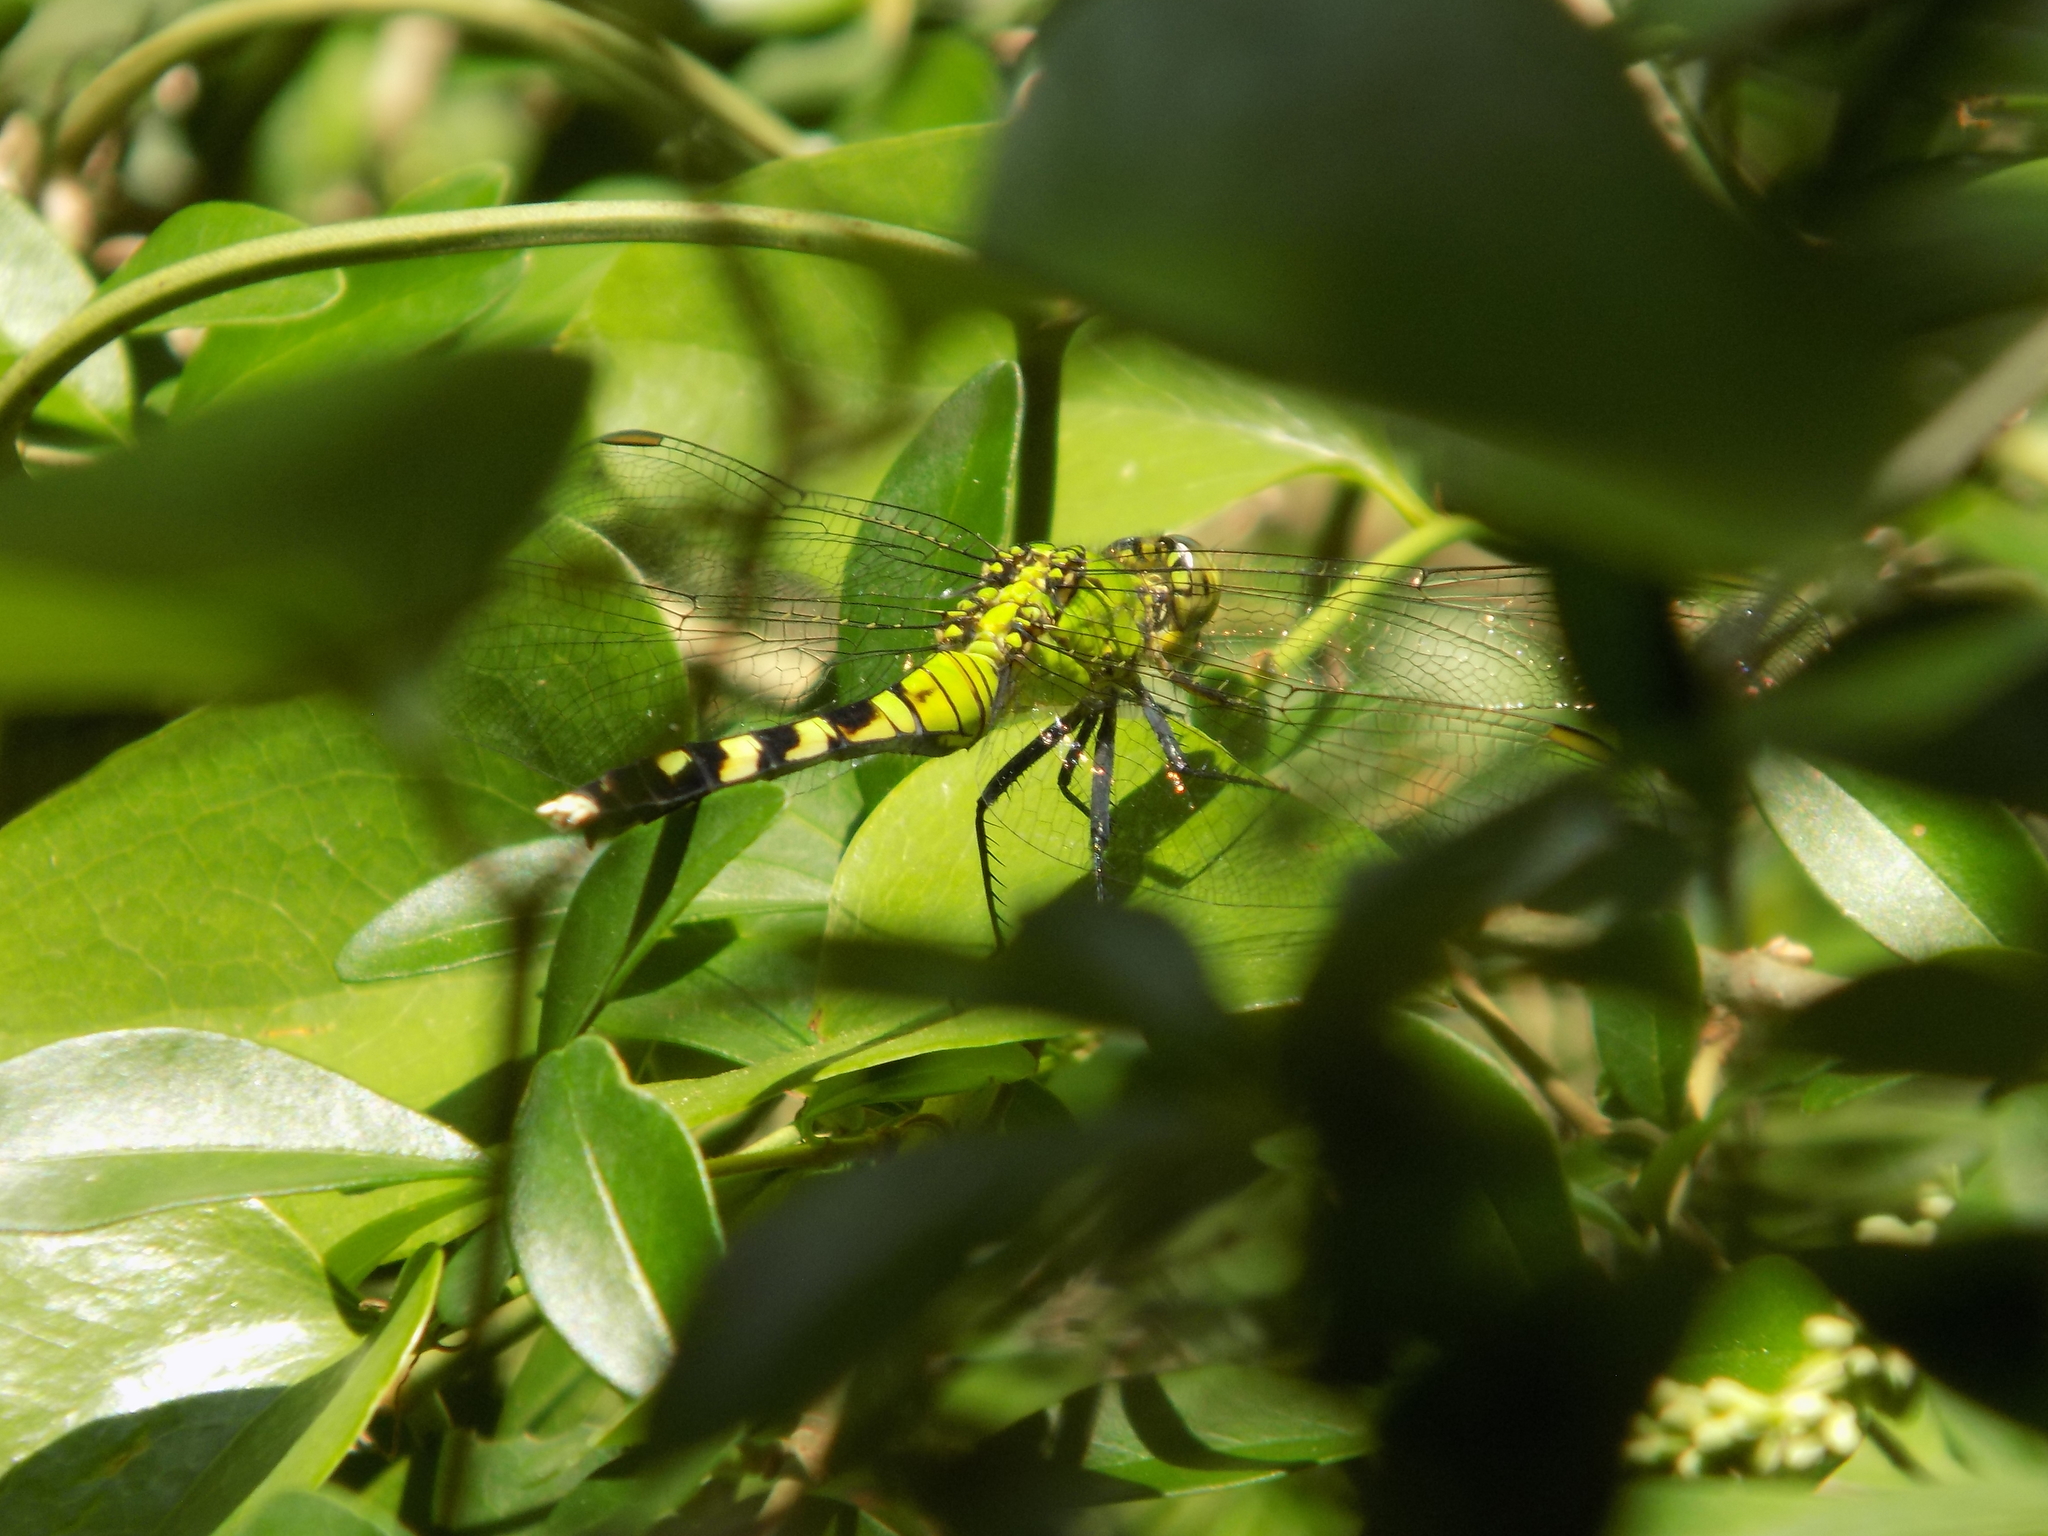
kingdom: Animalia
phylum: Arthropoda
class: Insecta
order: Odonata
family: Libellulidae
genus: Erythemis
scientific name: Erythemis simplicicollis
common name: Eastern pondhawk
